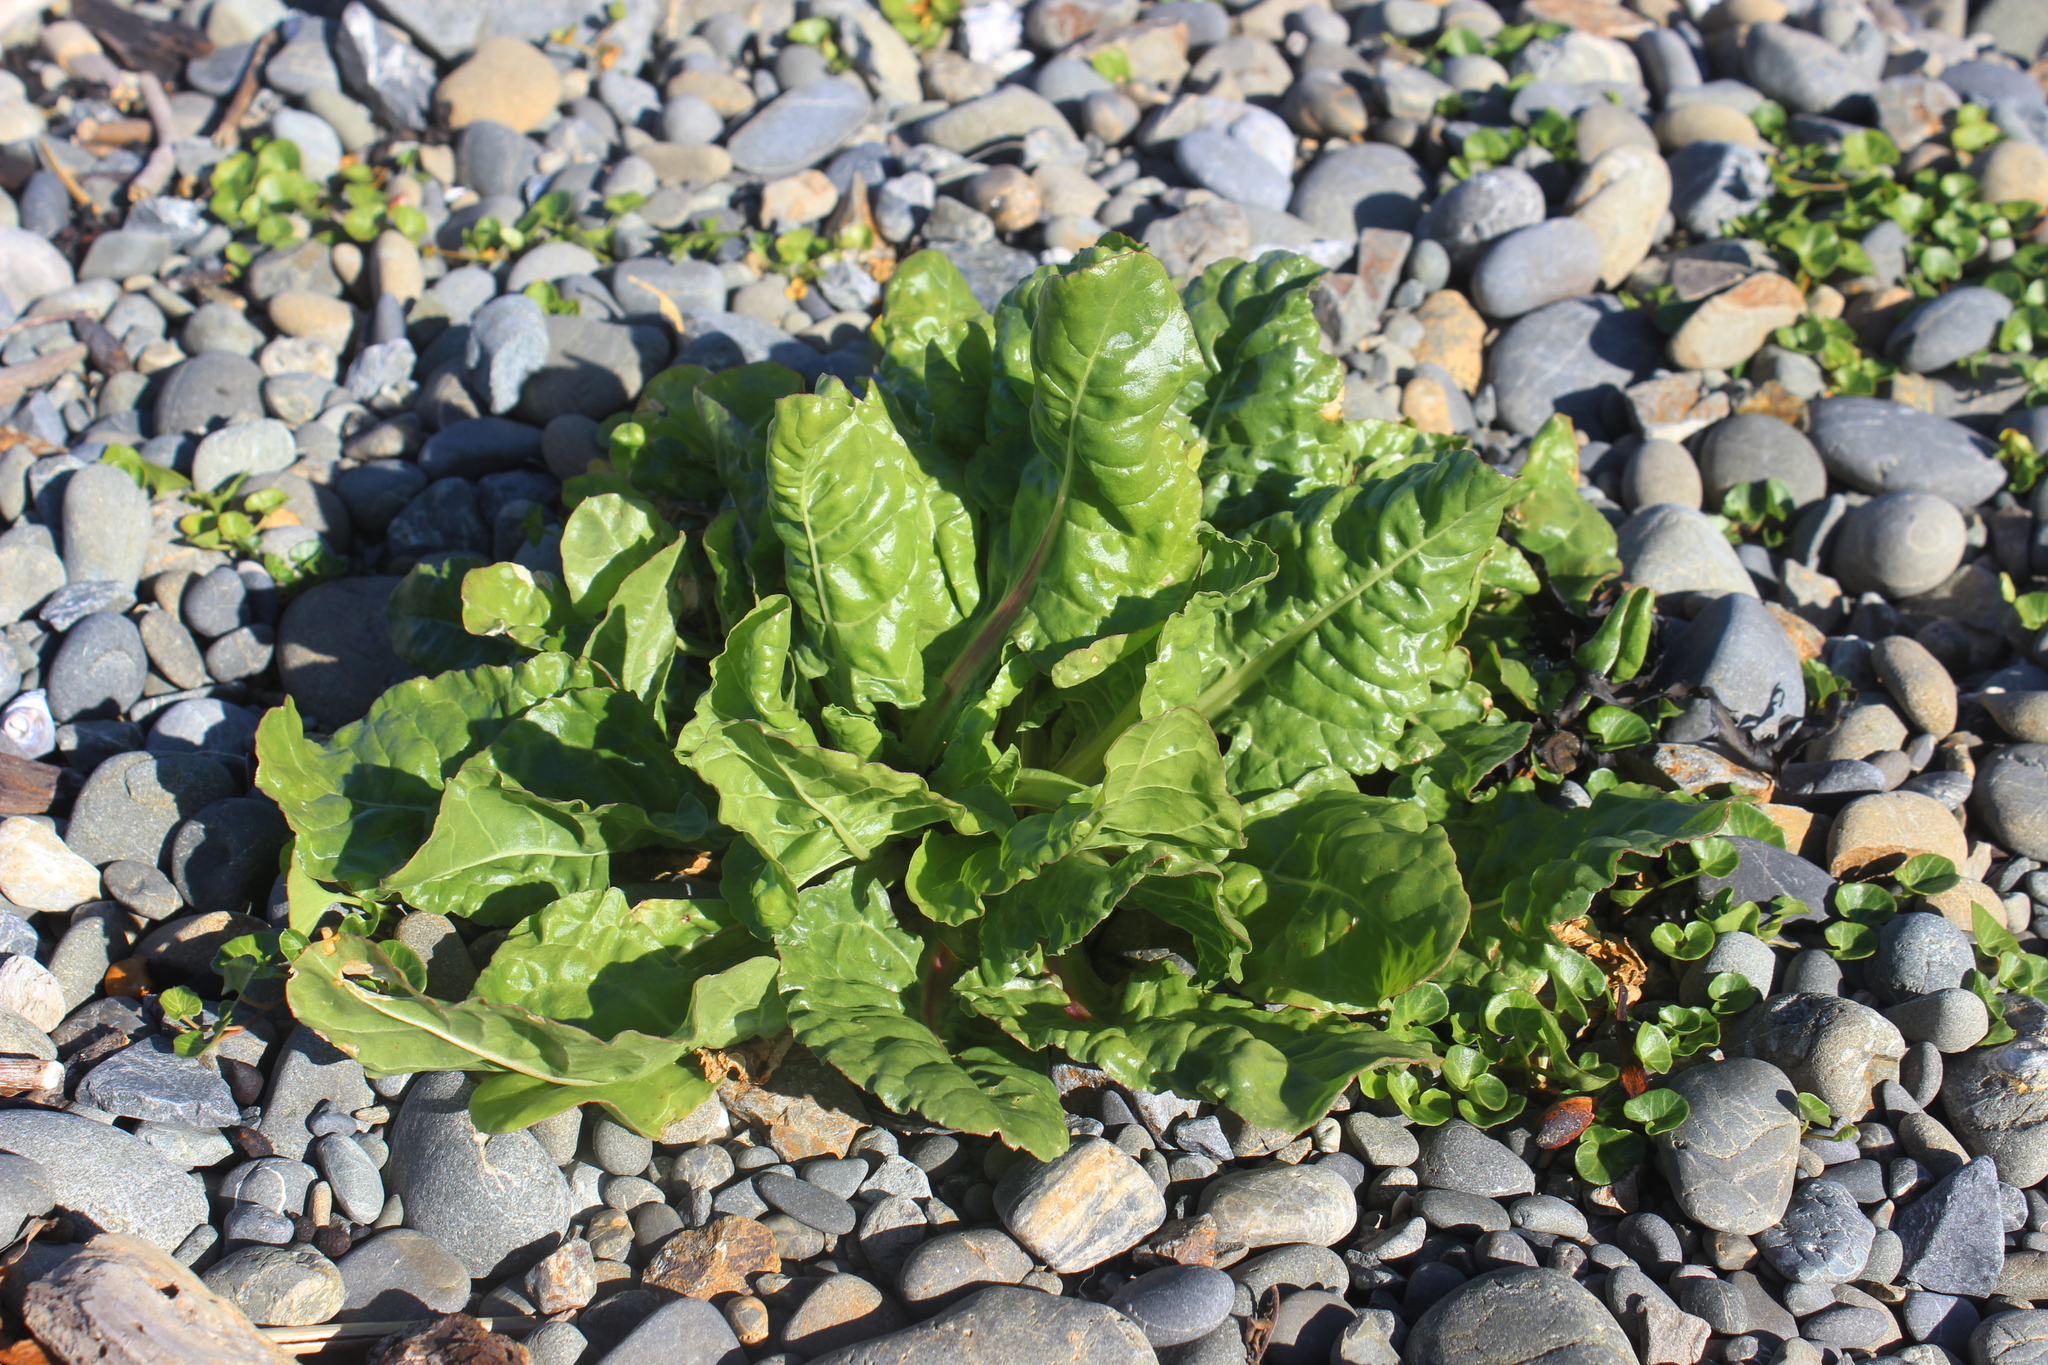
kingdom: Plantae
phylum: Tracheophyta
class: Magnoliopsida
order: Caryophyllales
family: Amaranthaceae
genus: Beta
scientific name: Beta vulgaris
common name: Beet
